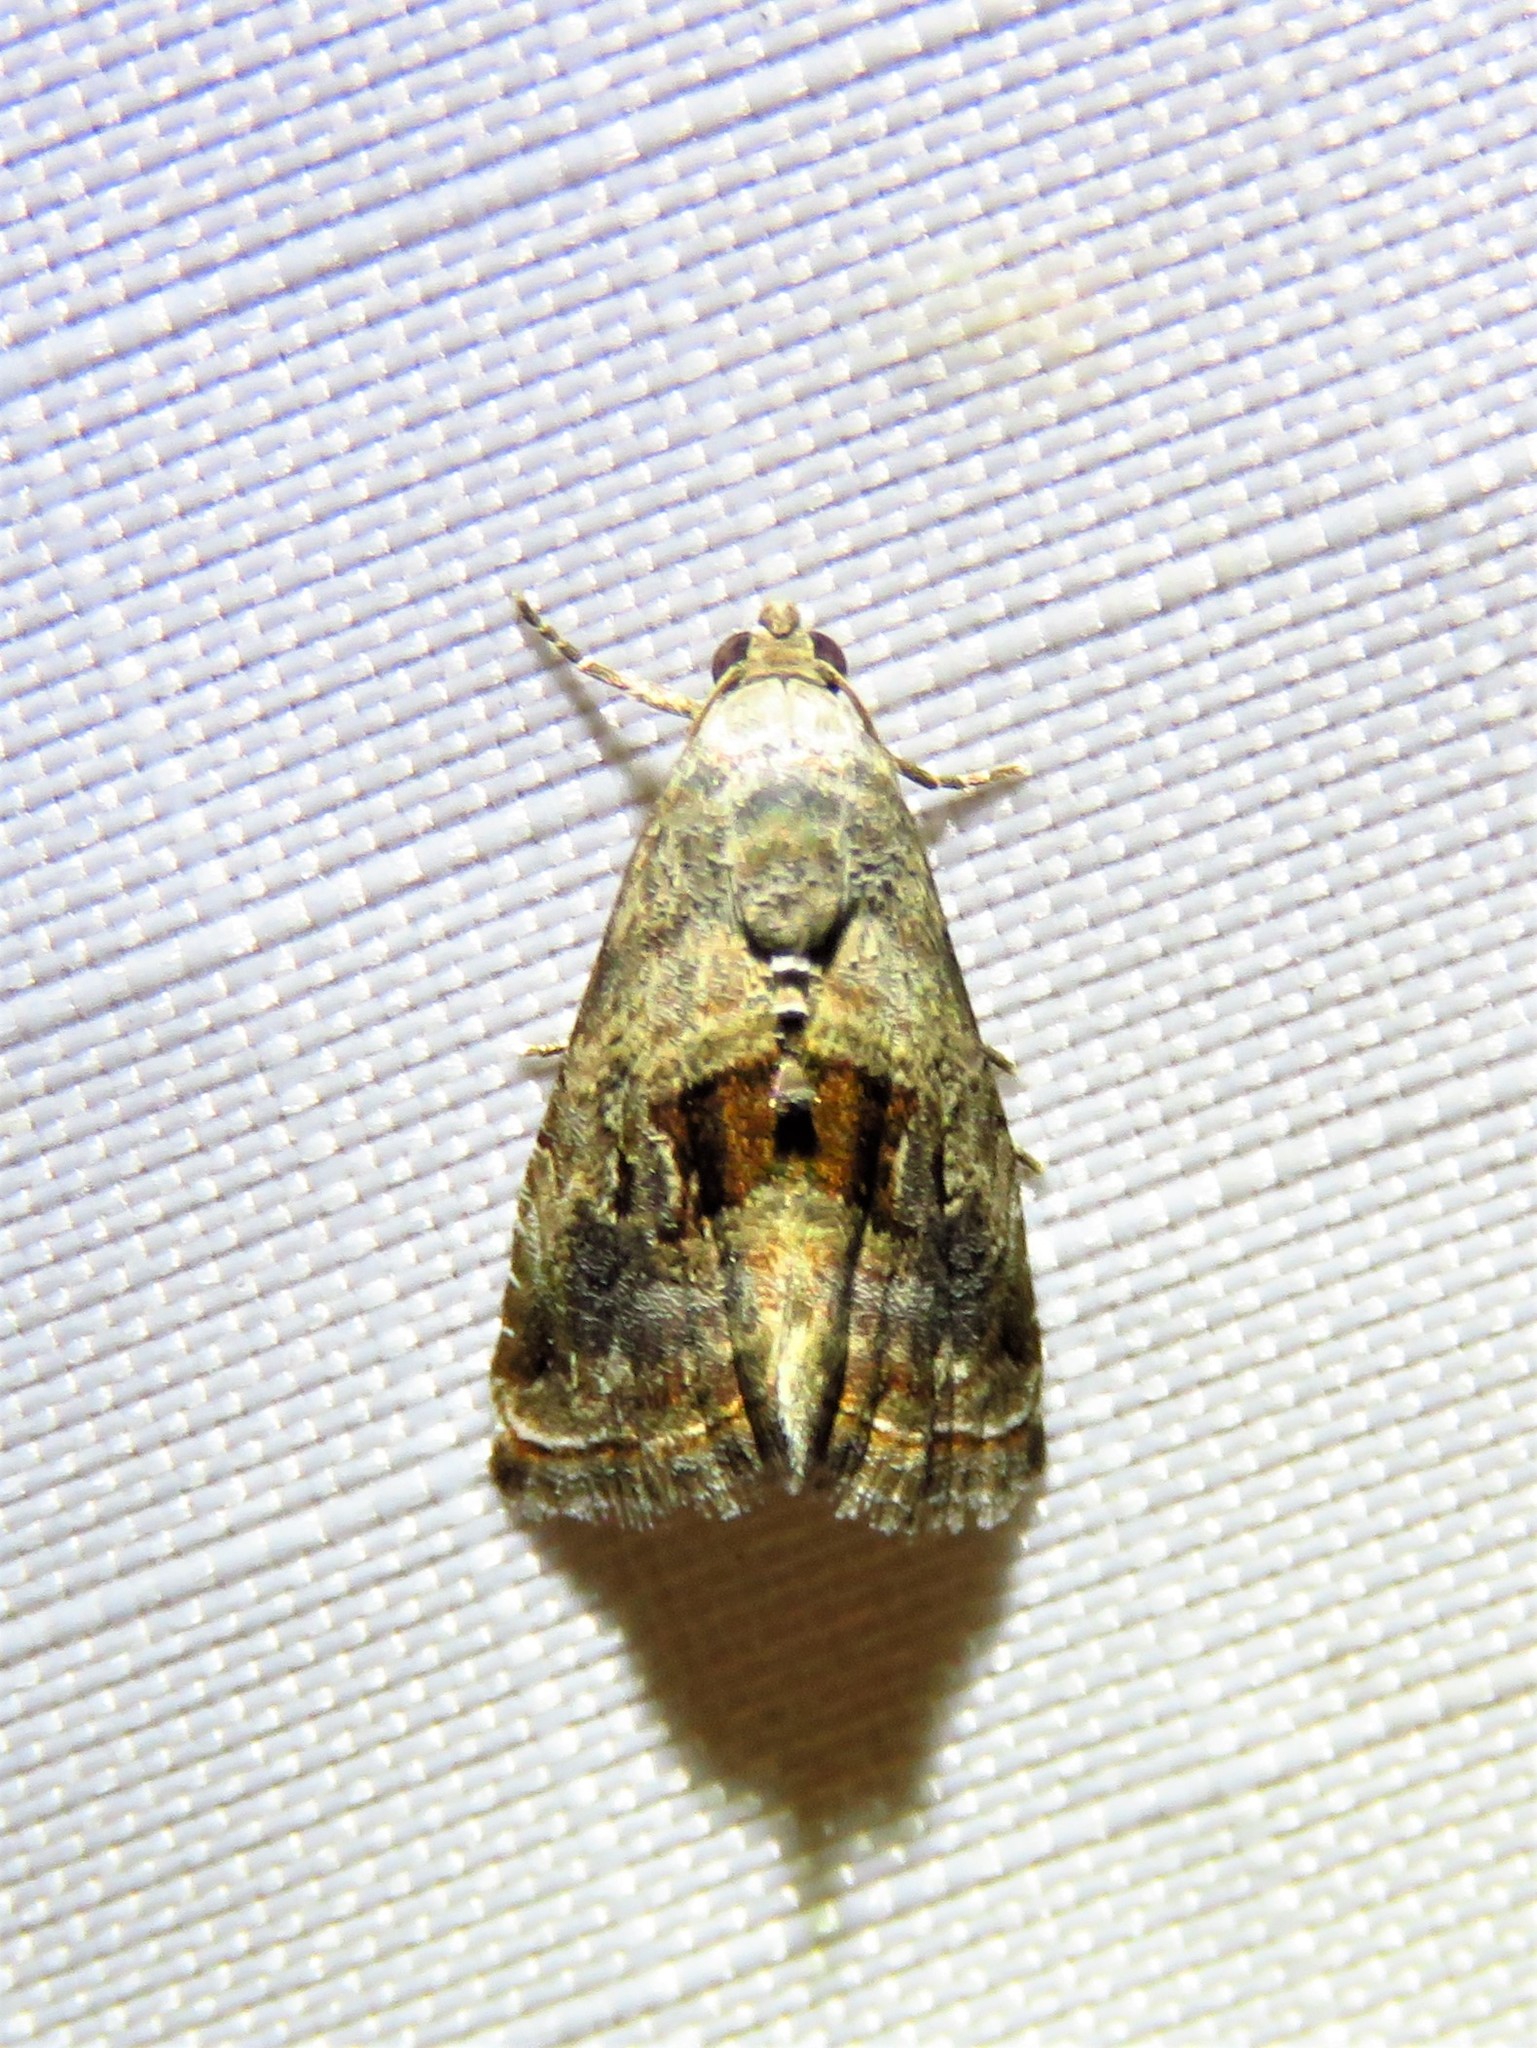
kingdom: Animalia
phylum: Arthropoda
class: Insecta
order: Lepidoptera
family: Noctuidae
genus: Tripudia
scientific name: Tripudia quadrifera
